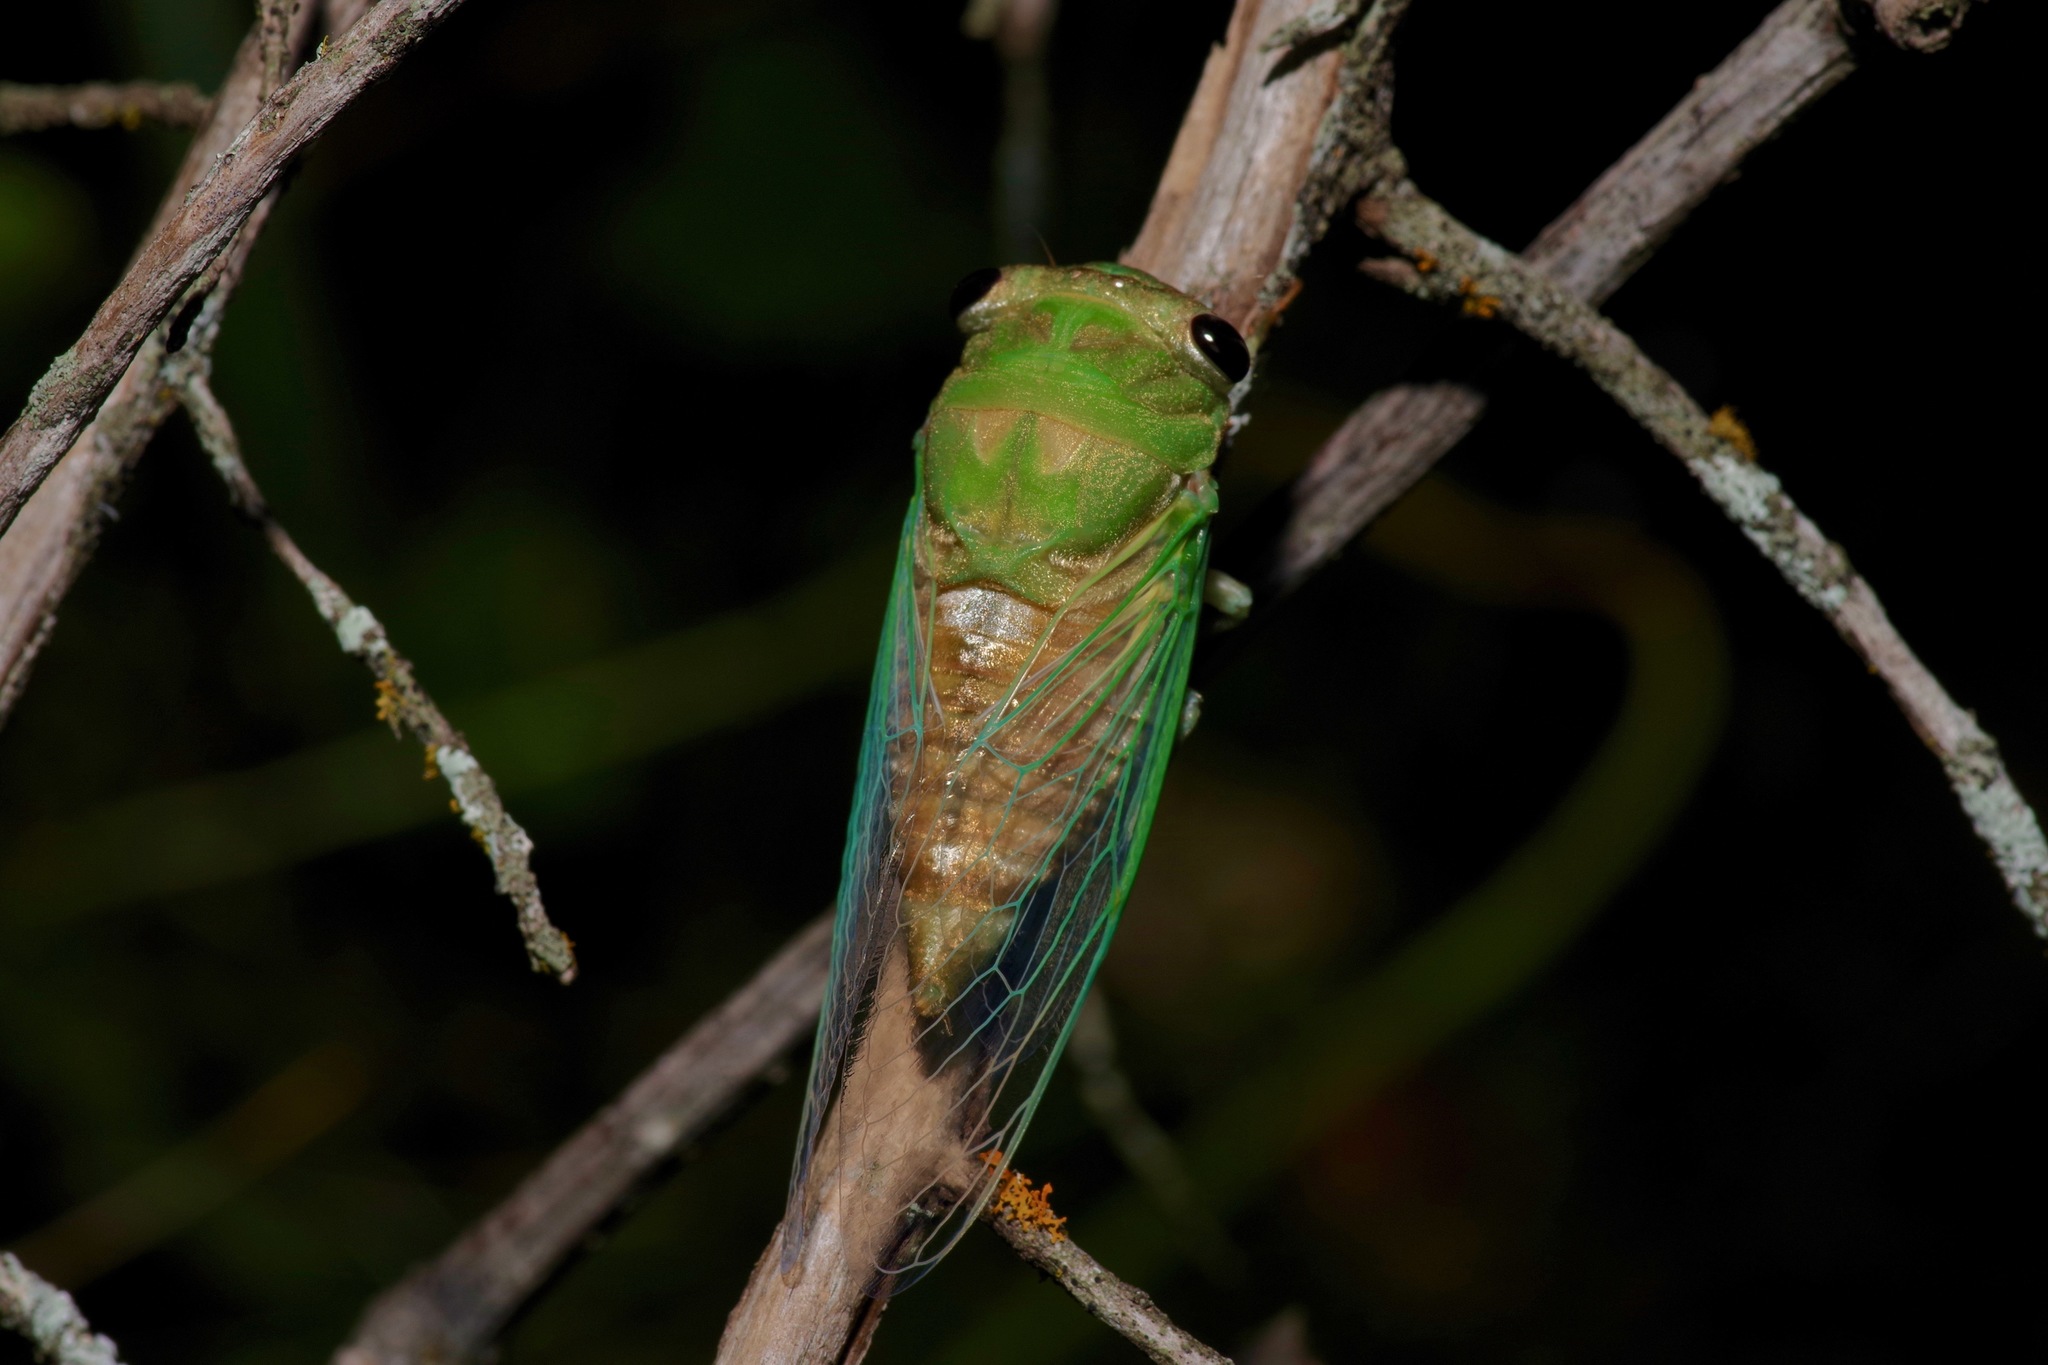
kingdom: Animalia
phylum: Arthropoda
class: Insecta
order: Hemiptera
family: Cicadidae
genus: Neotibicen
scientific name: Neotibicen superbus
